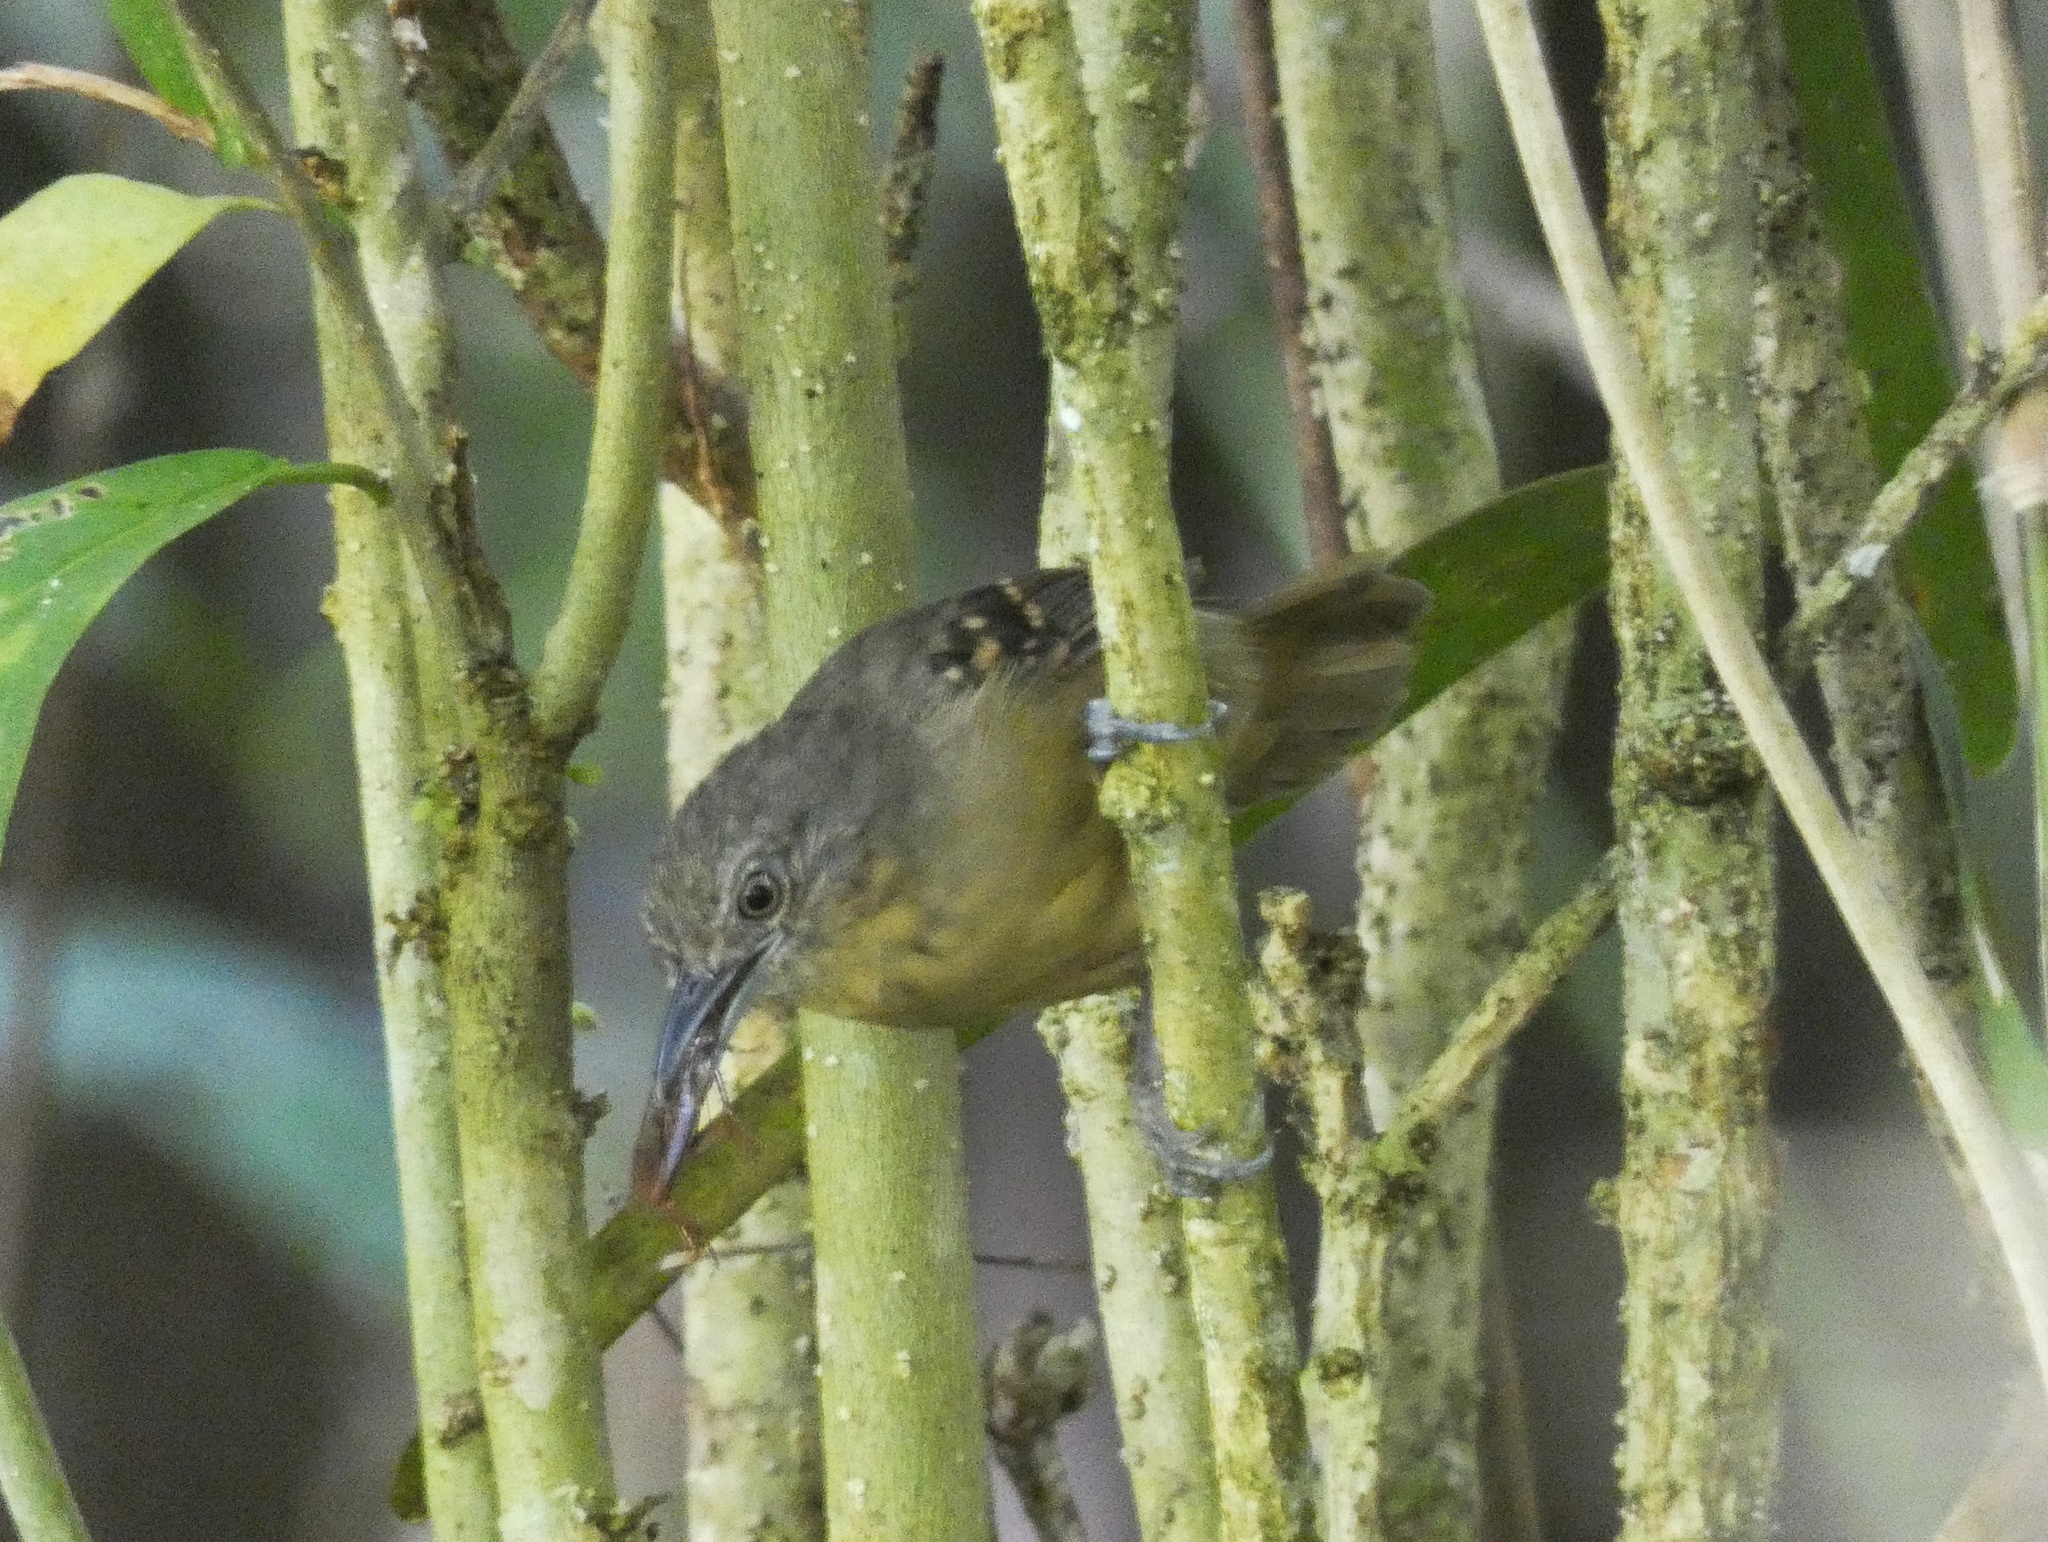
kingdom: Animalia
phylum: Chordata
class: Aves
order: Passeriformes
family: Thamnophilidae
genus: Epinecrophylla
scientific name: Epinecrophylla fulviventris
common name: Checker-throated antwren
